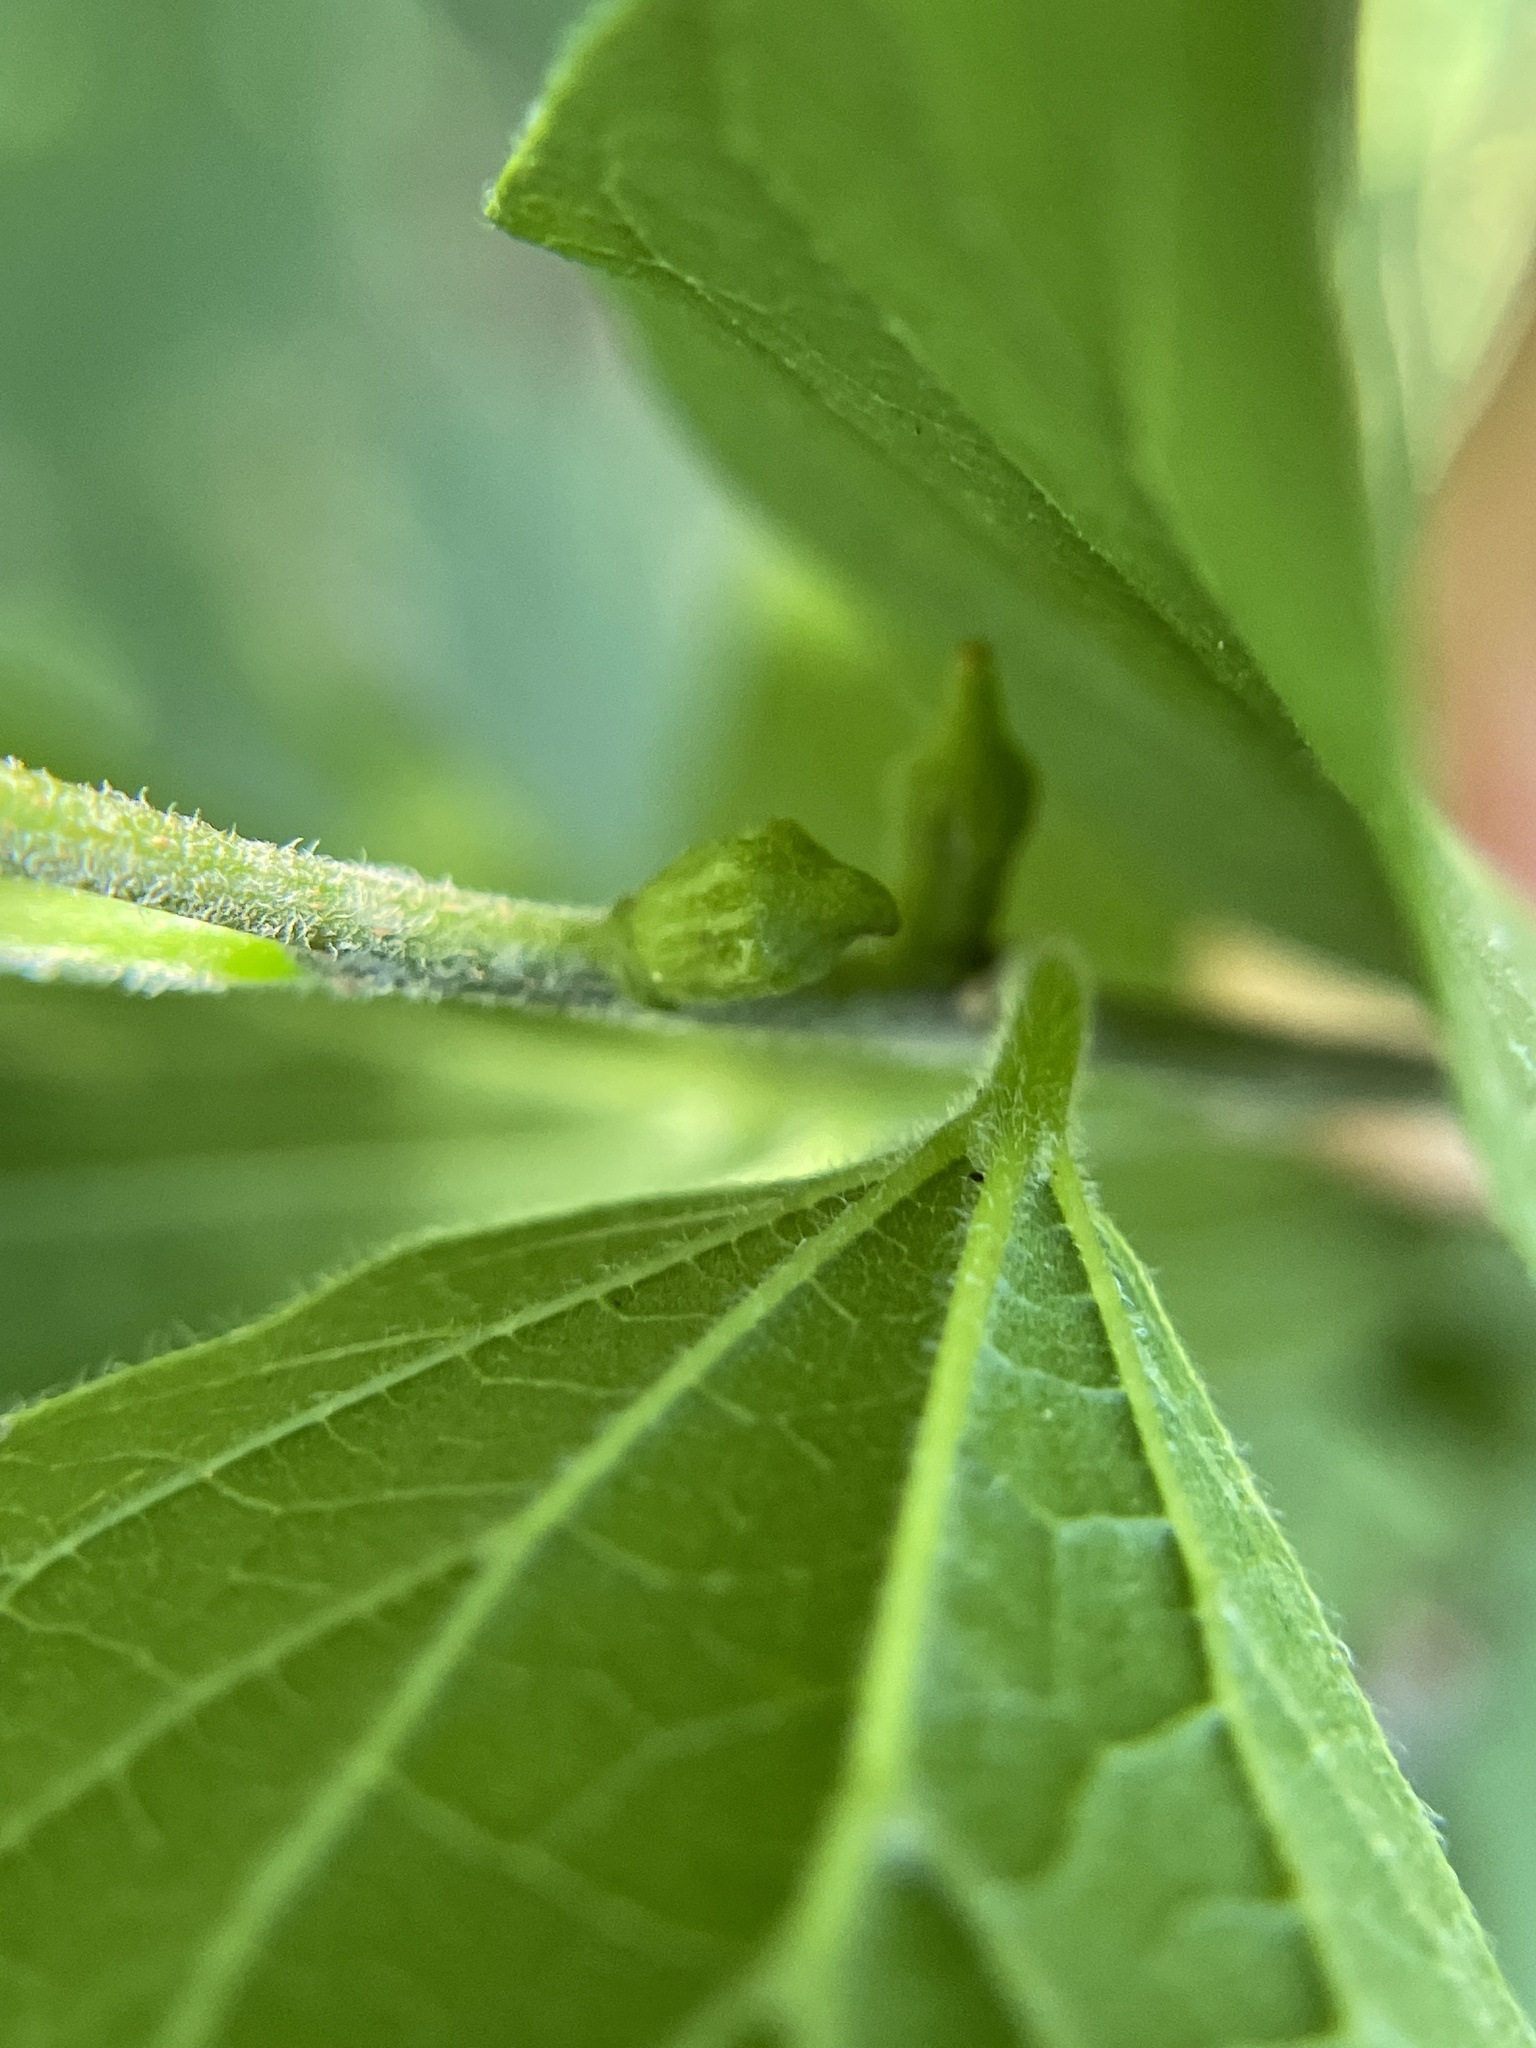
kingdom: Animalia
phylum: Arthropoda
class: Insecta
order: Diptera
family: Cecidomyiidae
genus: Celticecis
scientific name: Celticecis ramicola
